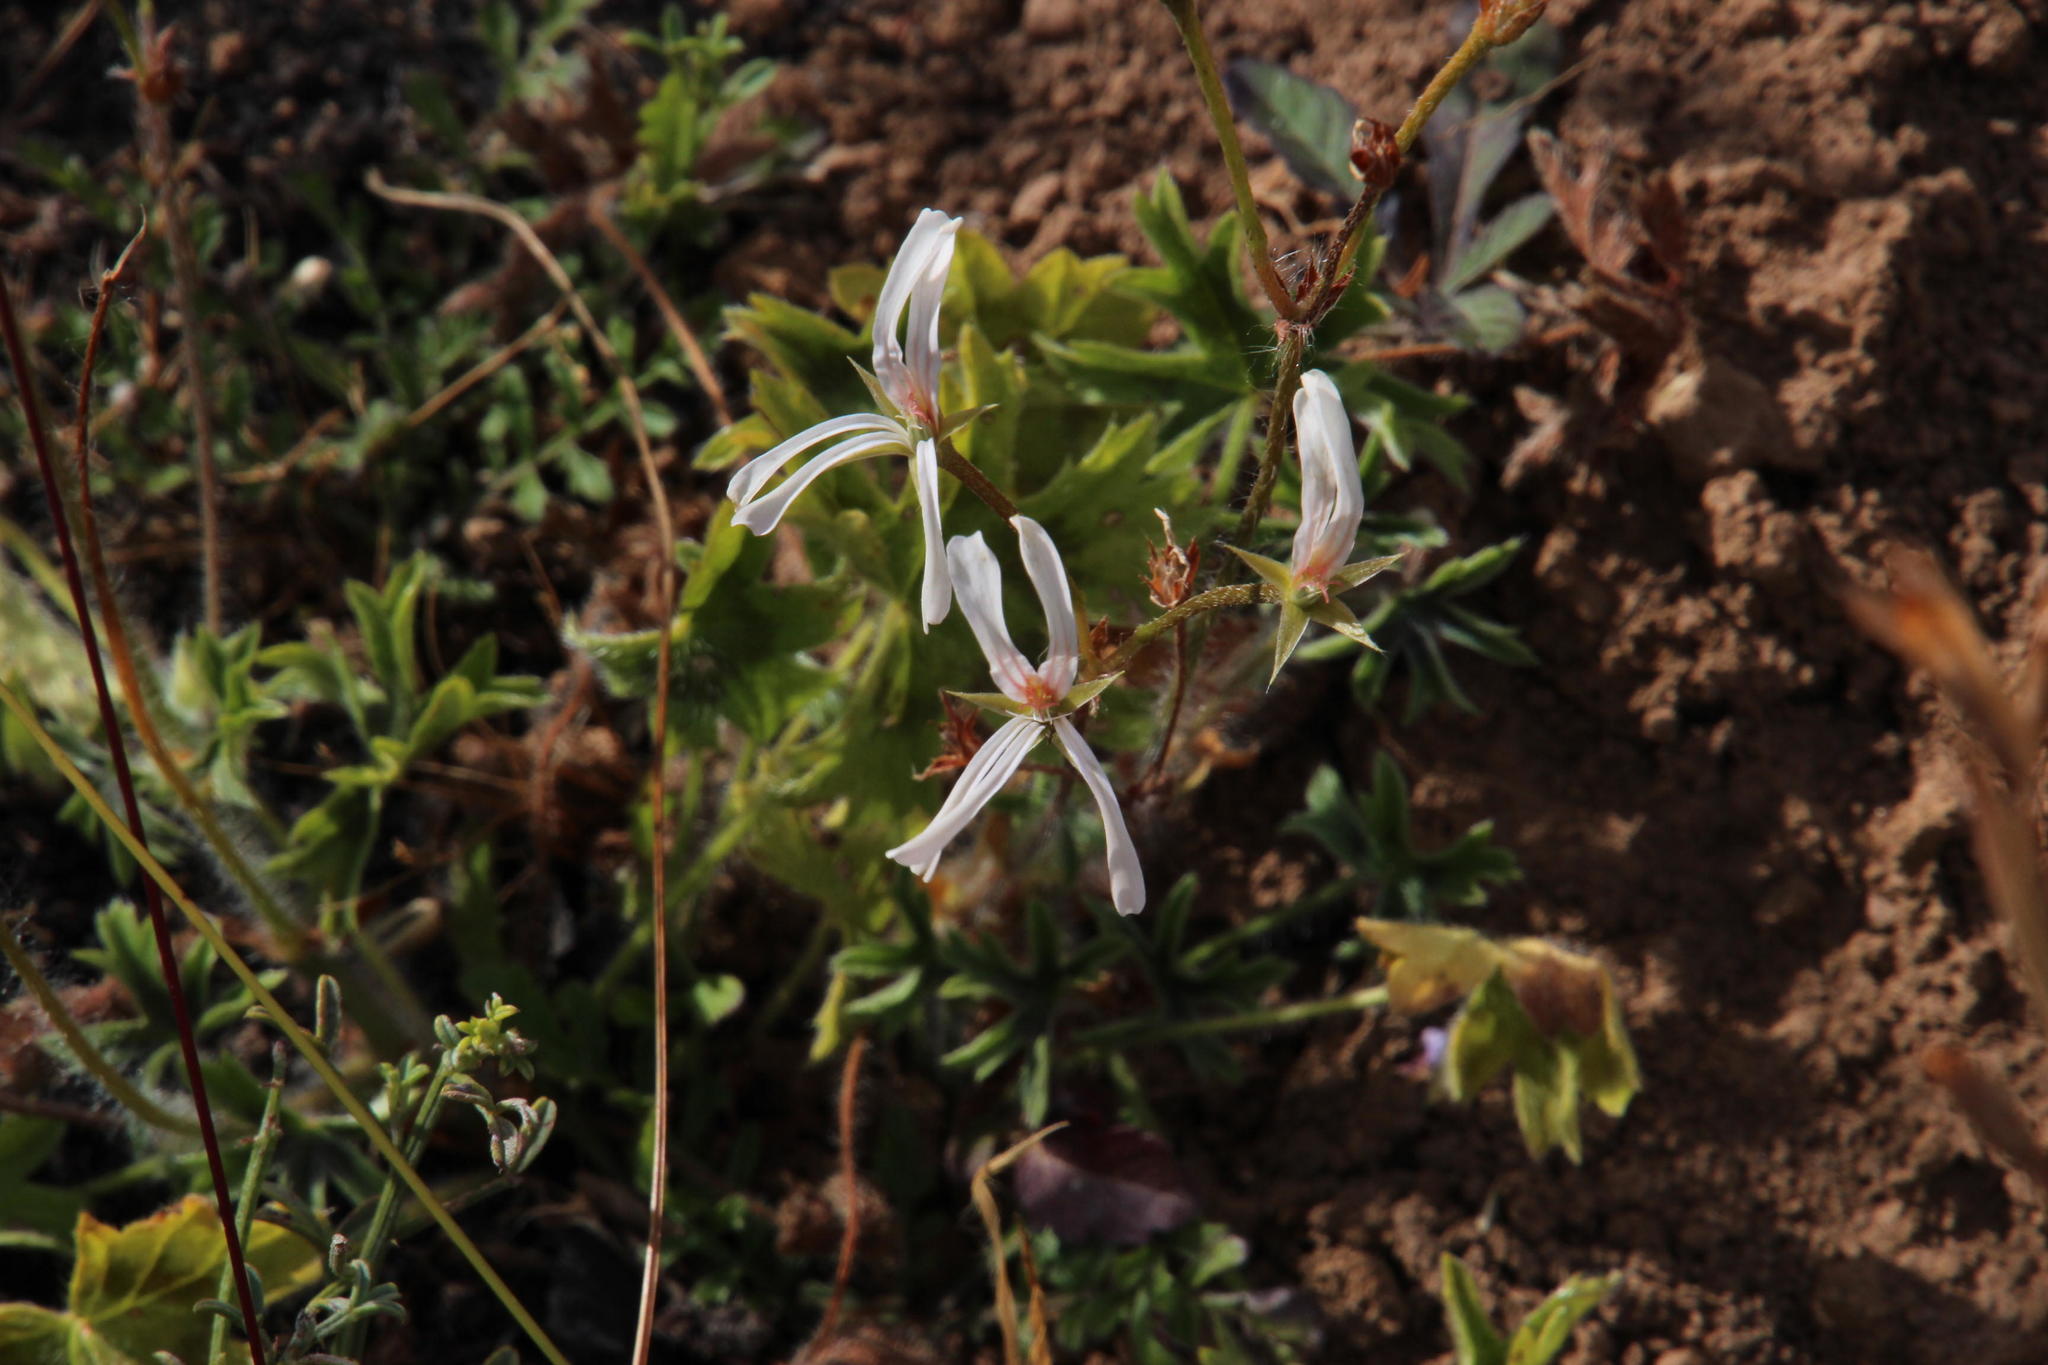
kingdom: Plantae
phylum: Tracheophyta
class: Magnoliopsida
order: Geraniales
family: Geraniaceae
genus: Pelargonium
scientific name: Pelargonium alchemilloides
